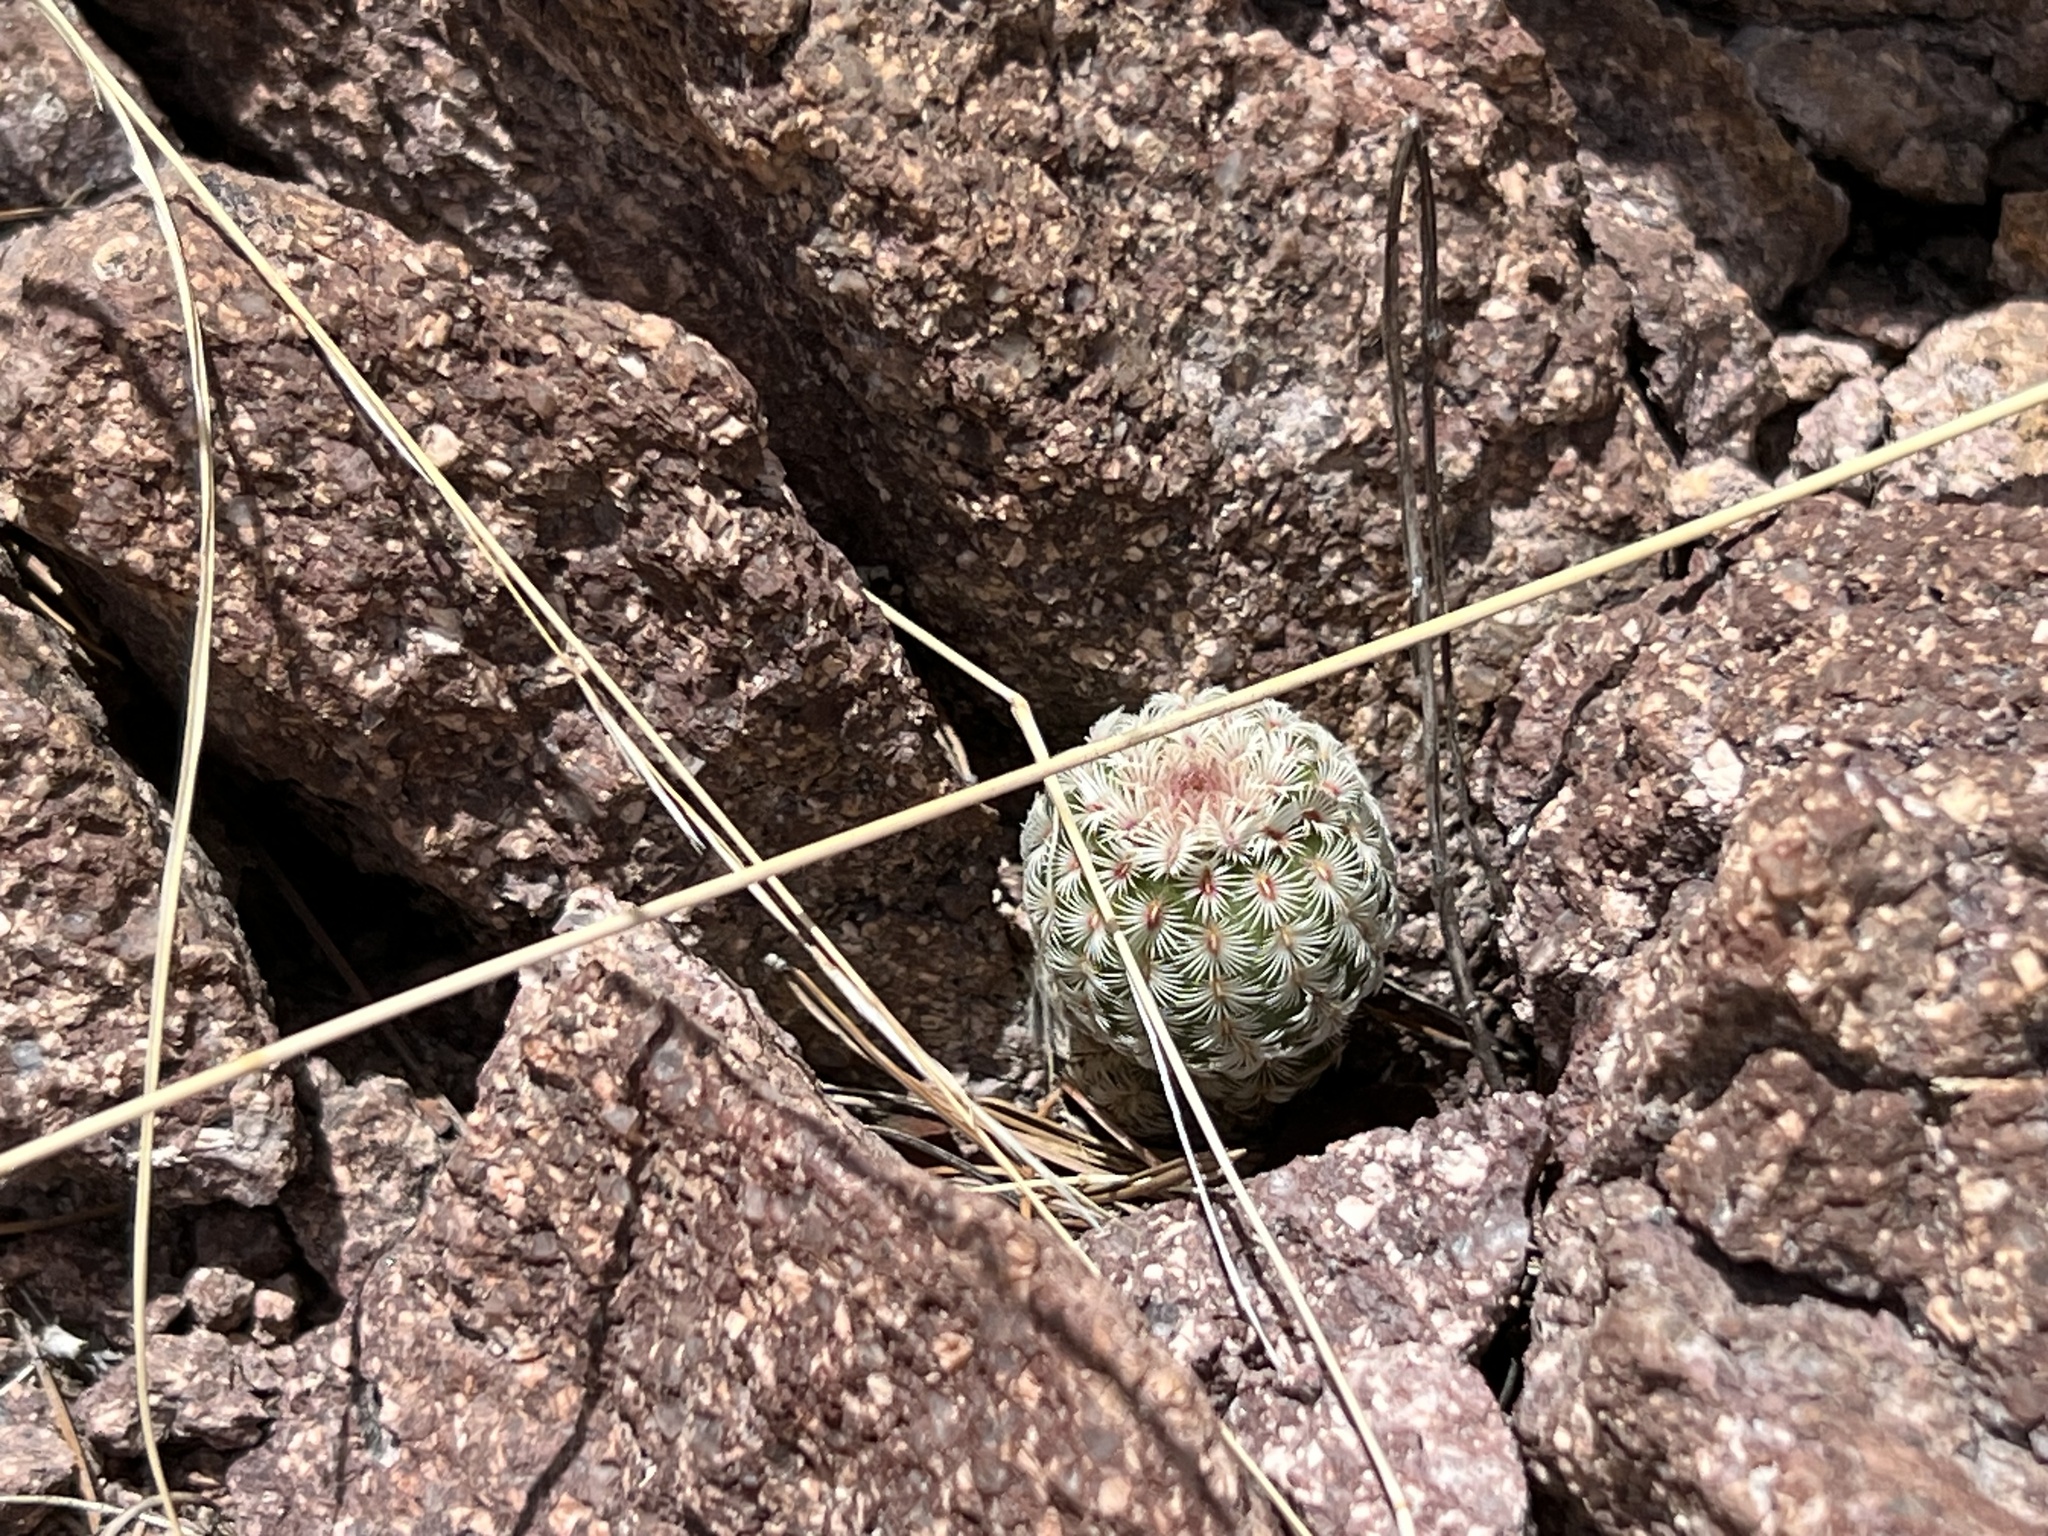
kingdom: Plantae
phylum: Tracheophyta
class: Magnoliopsida
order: Caryophyllales
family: Cactaceae
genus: Echinocereus
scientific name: Echinocereus rigidissimus
